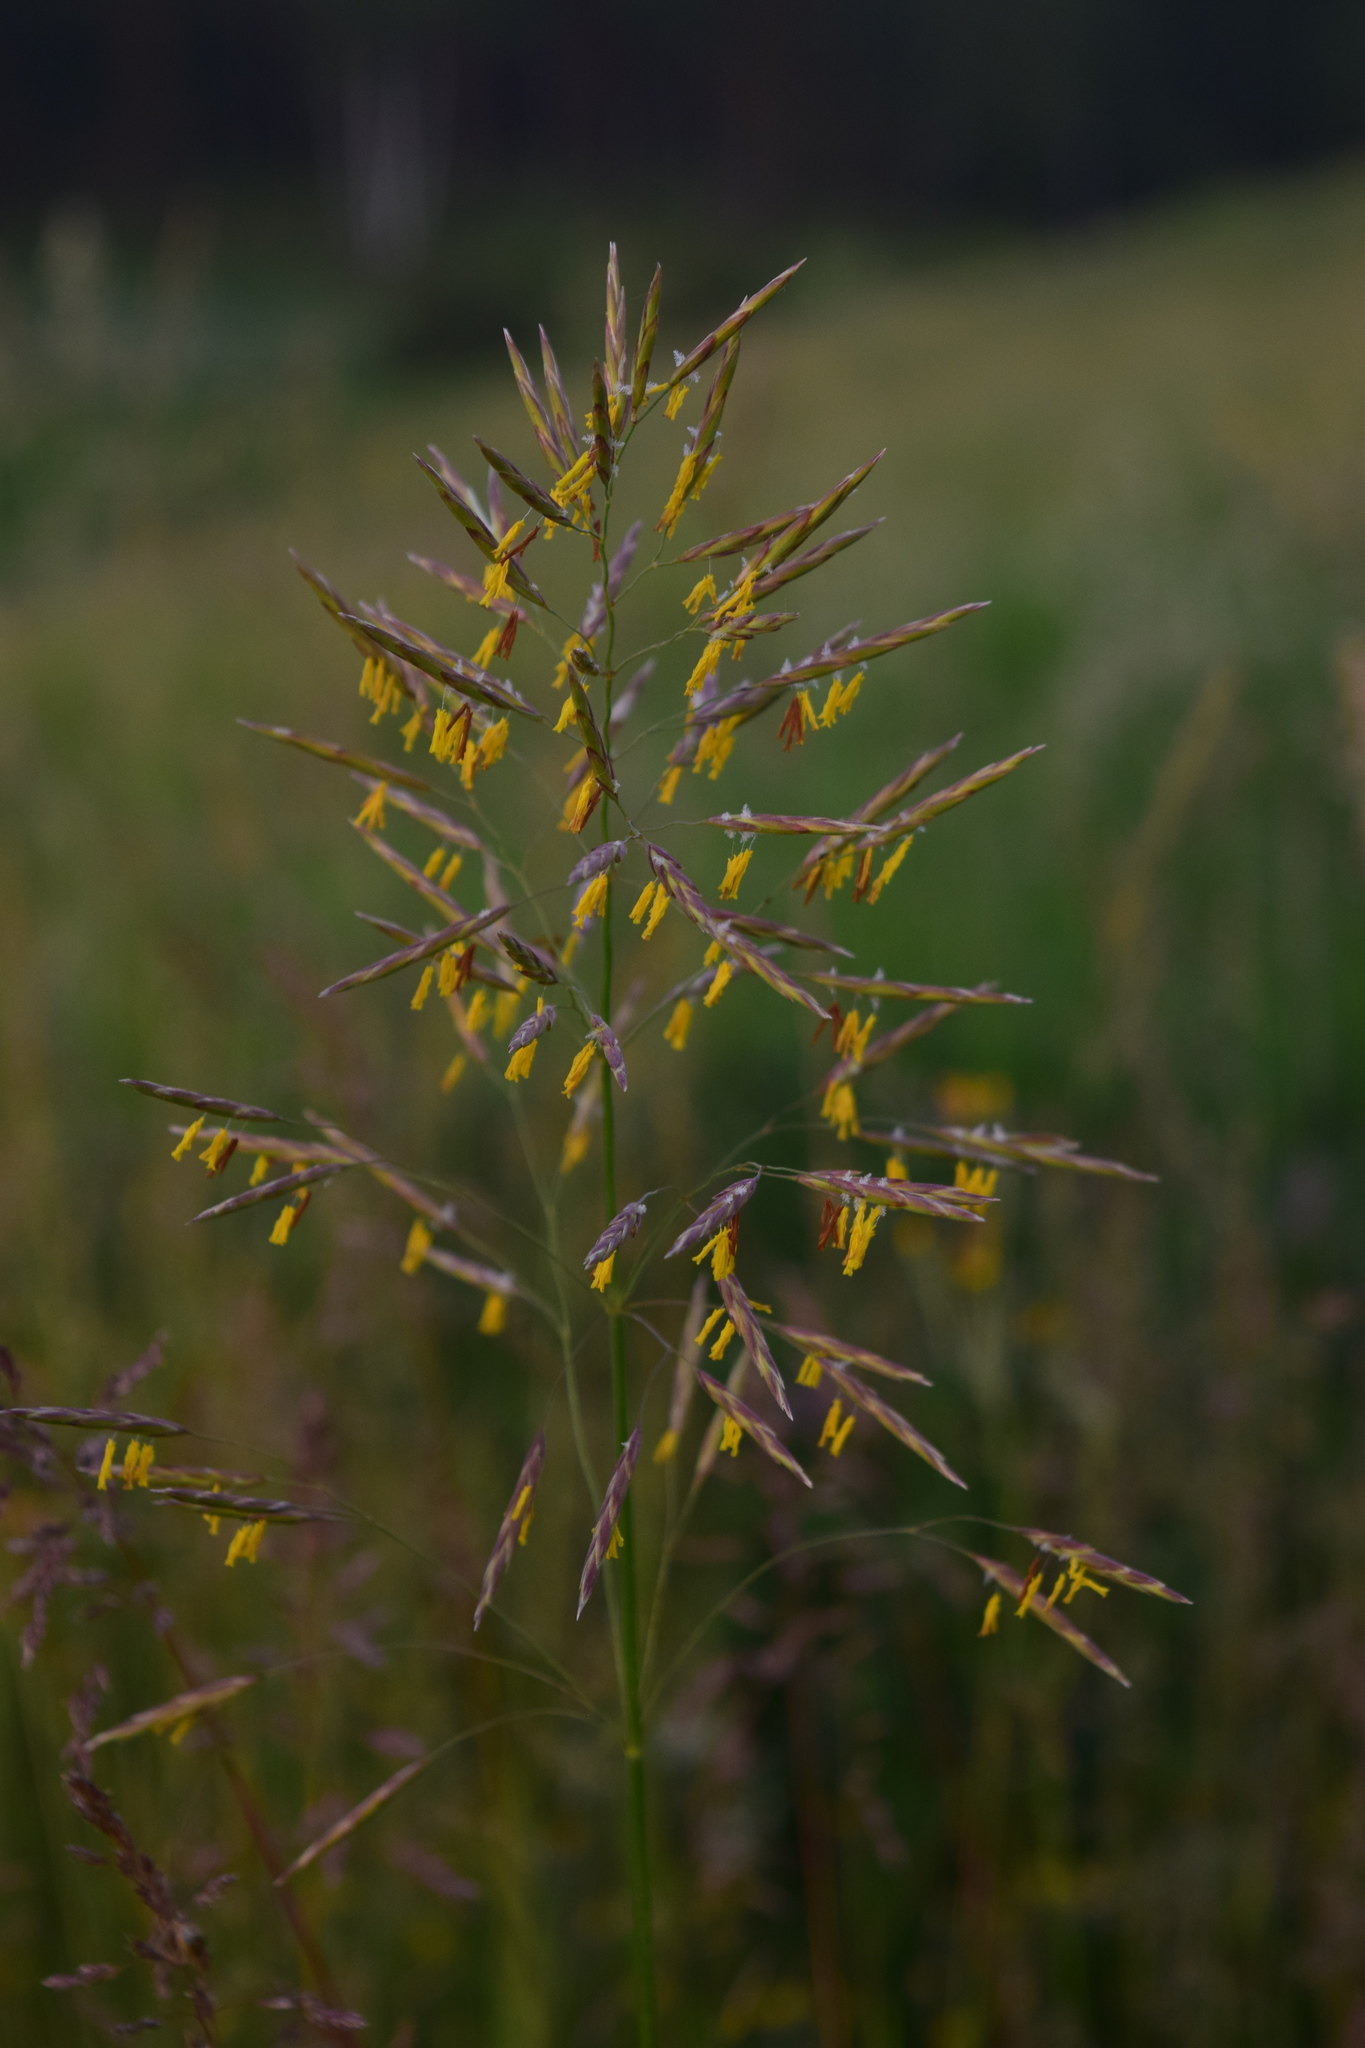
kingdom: Plantae
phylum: Tracheophyta
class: Liliopsida
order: Poales
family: Poaceae
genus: Bromus
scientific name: Bromus inermis
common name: Smooth brome
